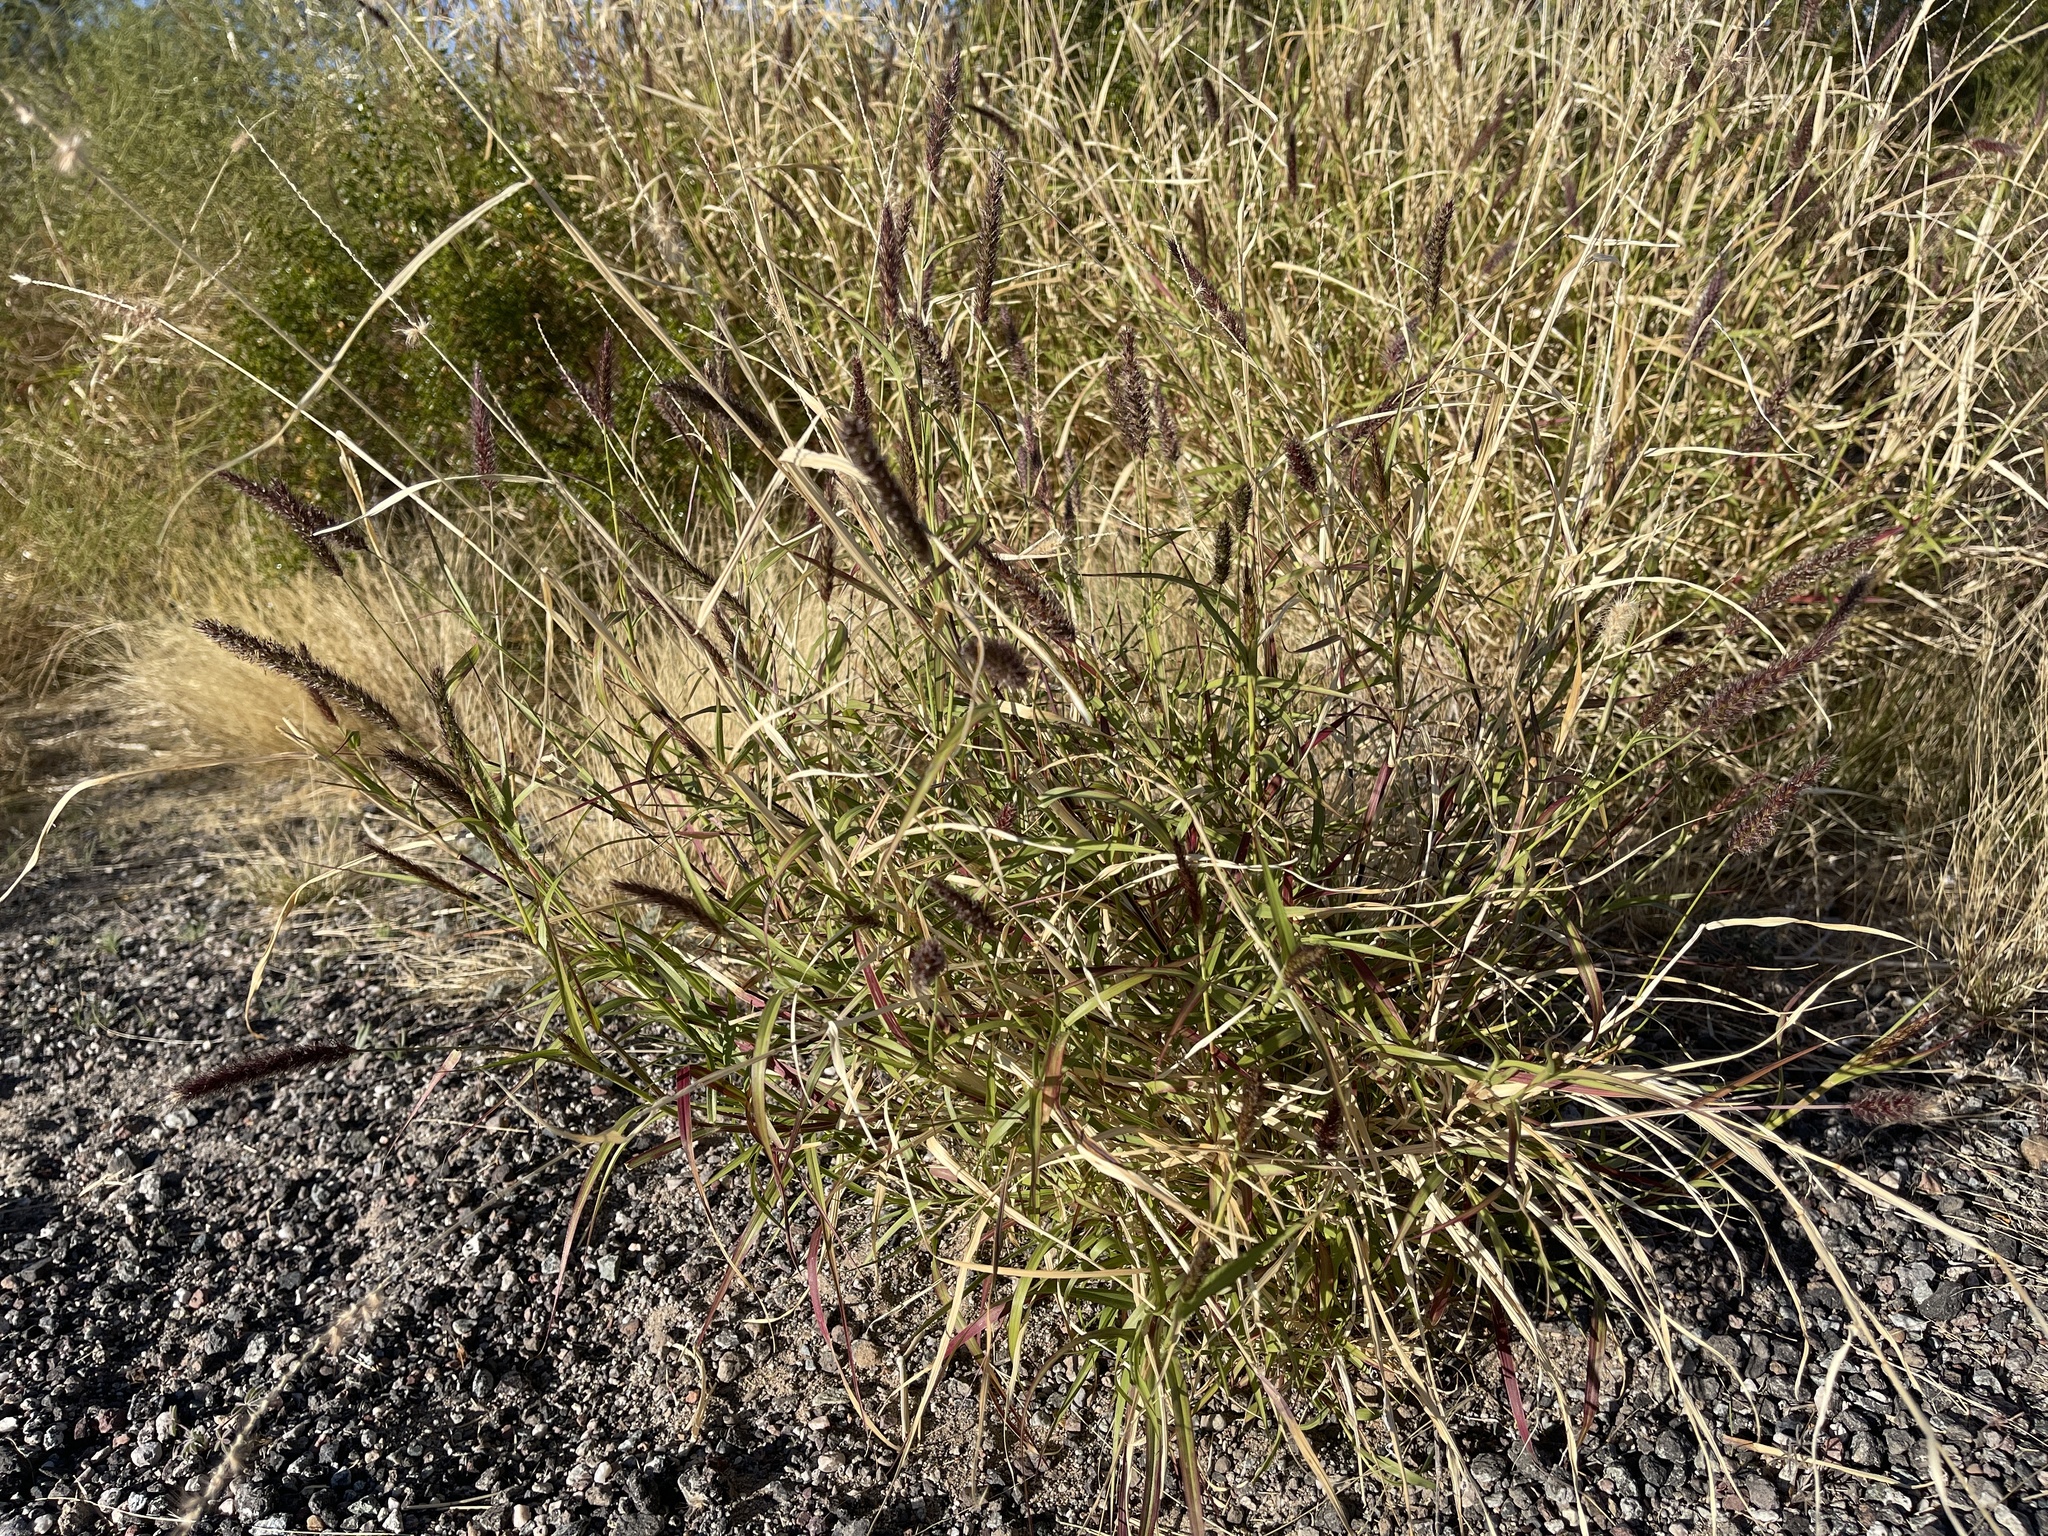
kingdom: Plantae
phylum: Tracheophyta
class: Liliopsida
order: Poales
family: Poaceae
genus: Cenchrus
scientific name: Cenchrus ciliaris
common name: Buffelgrass
